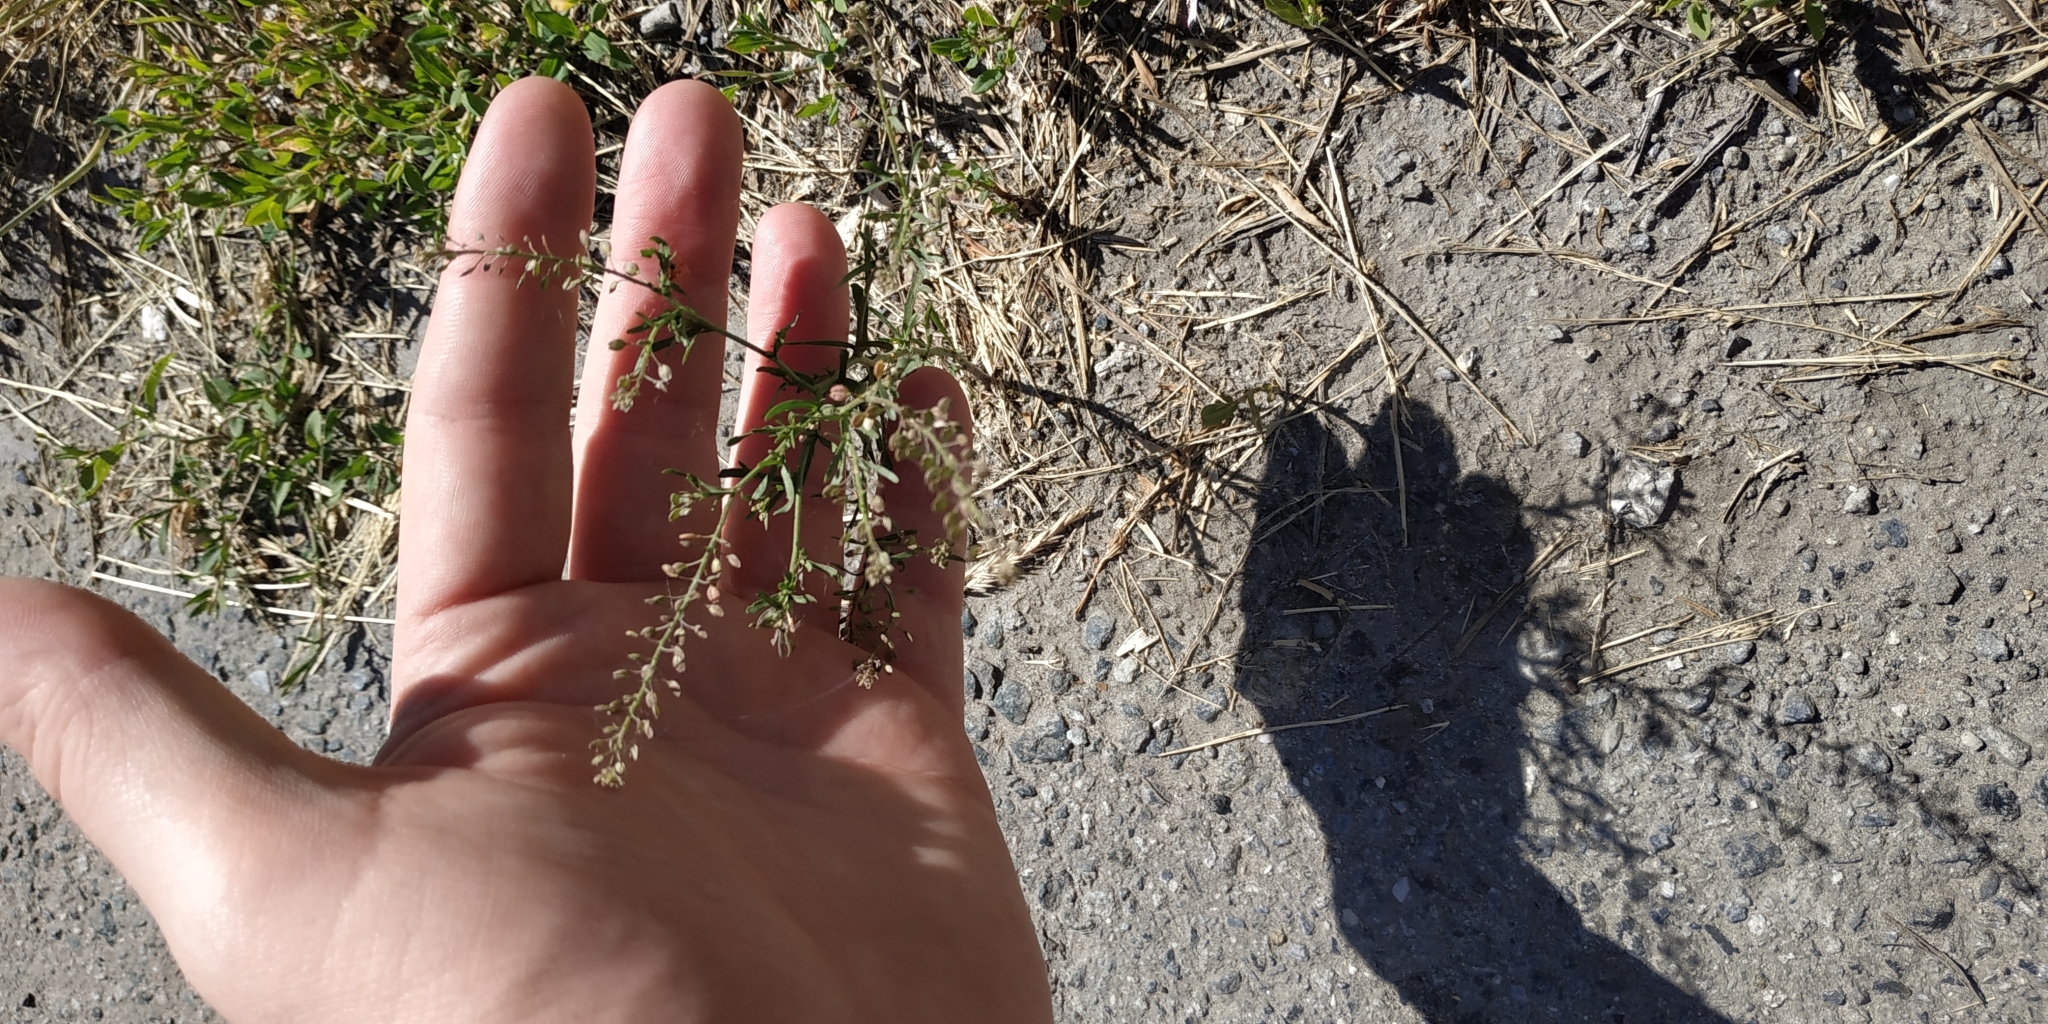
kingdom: Plantae
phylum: Tracheophyta
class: Magnoliopsida
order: Brassicales
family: Brassicaceae
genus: Lepidium
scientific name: Lepidium densiflorum
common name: Miner's pepperwort
